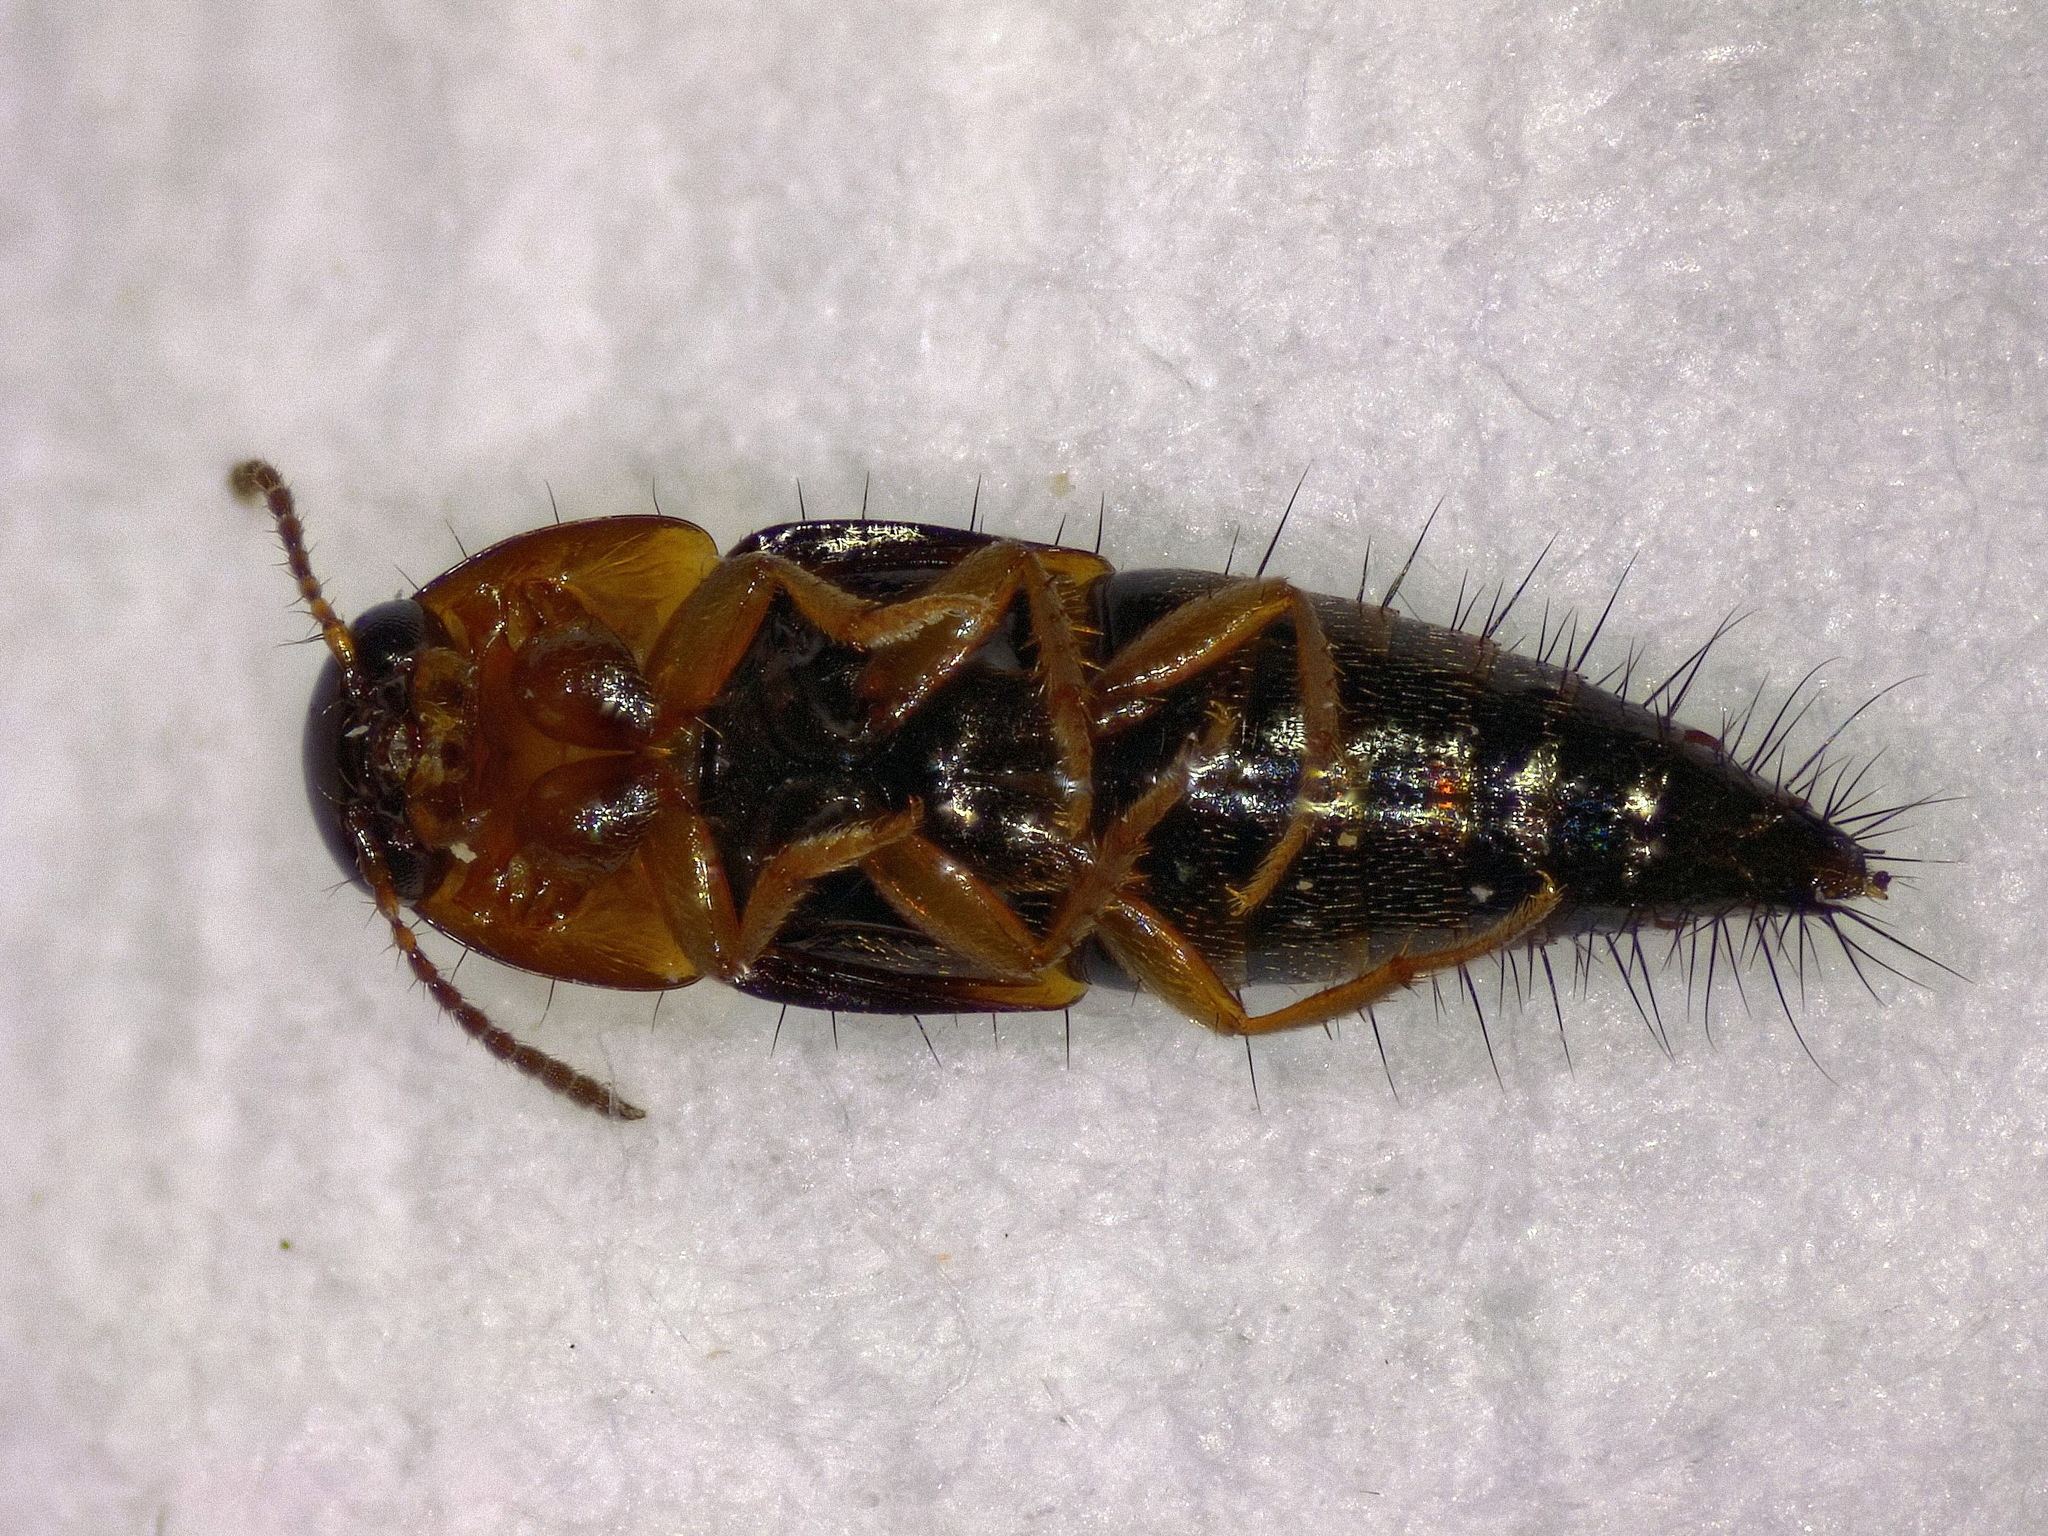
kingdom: Animalia
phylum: Arthropoda
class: Insecta
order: Coleoptera
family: Staphylinidae
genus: Tachyporus
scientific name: Tachyporus dispar
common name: Staph beetle
